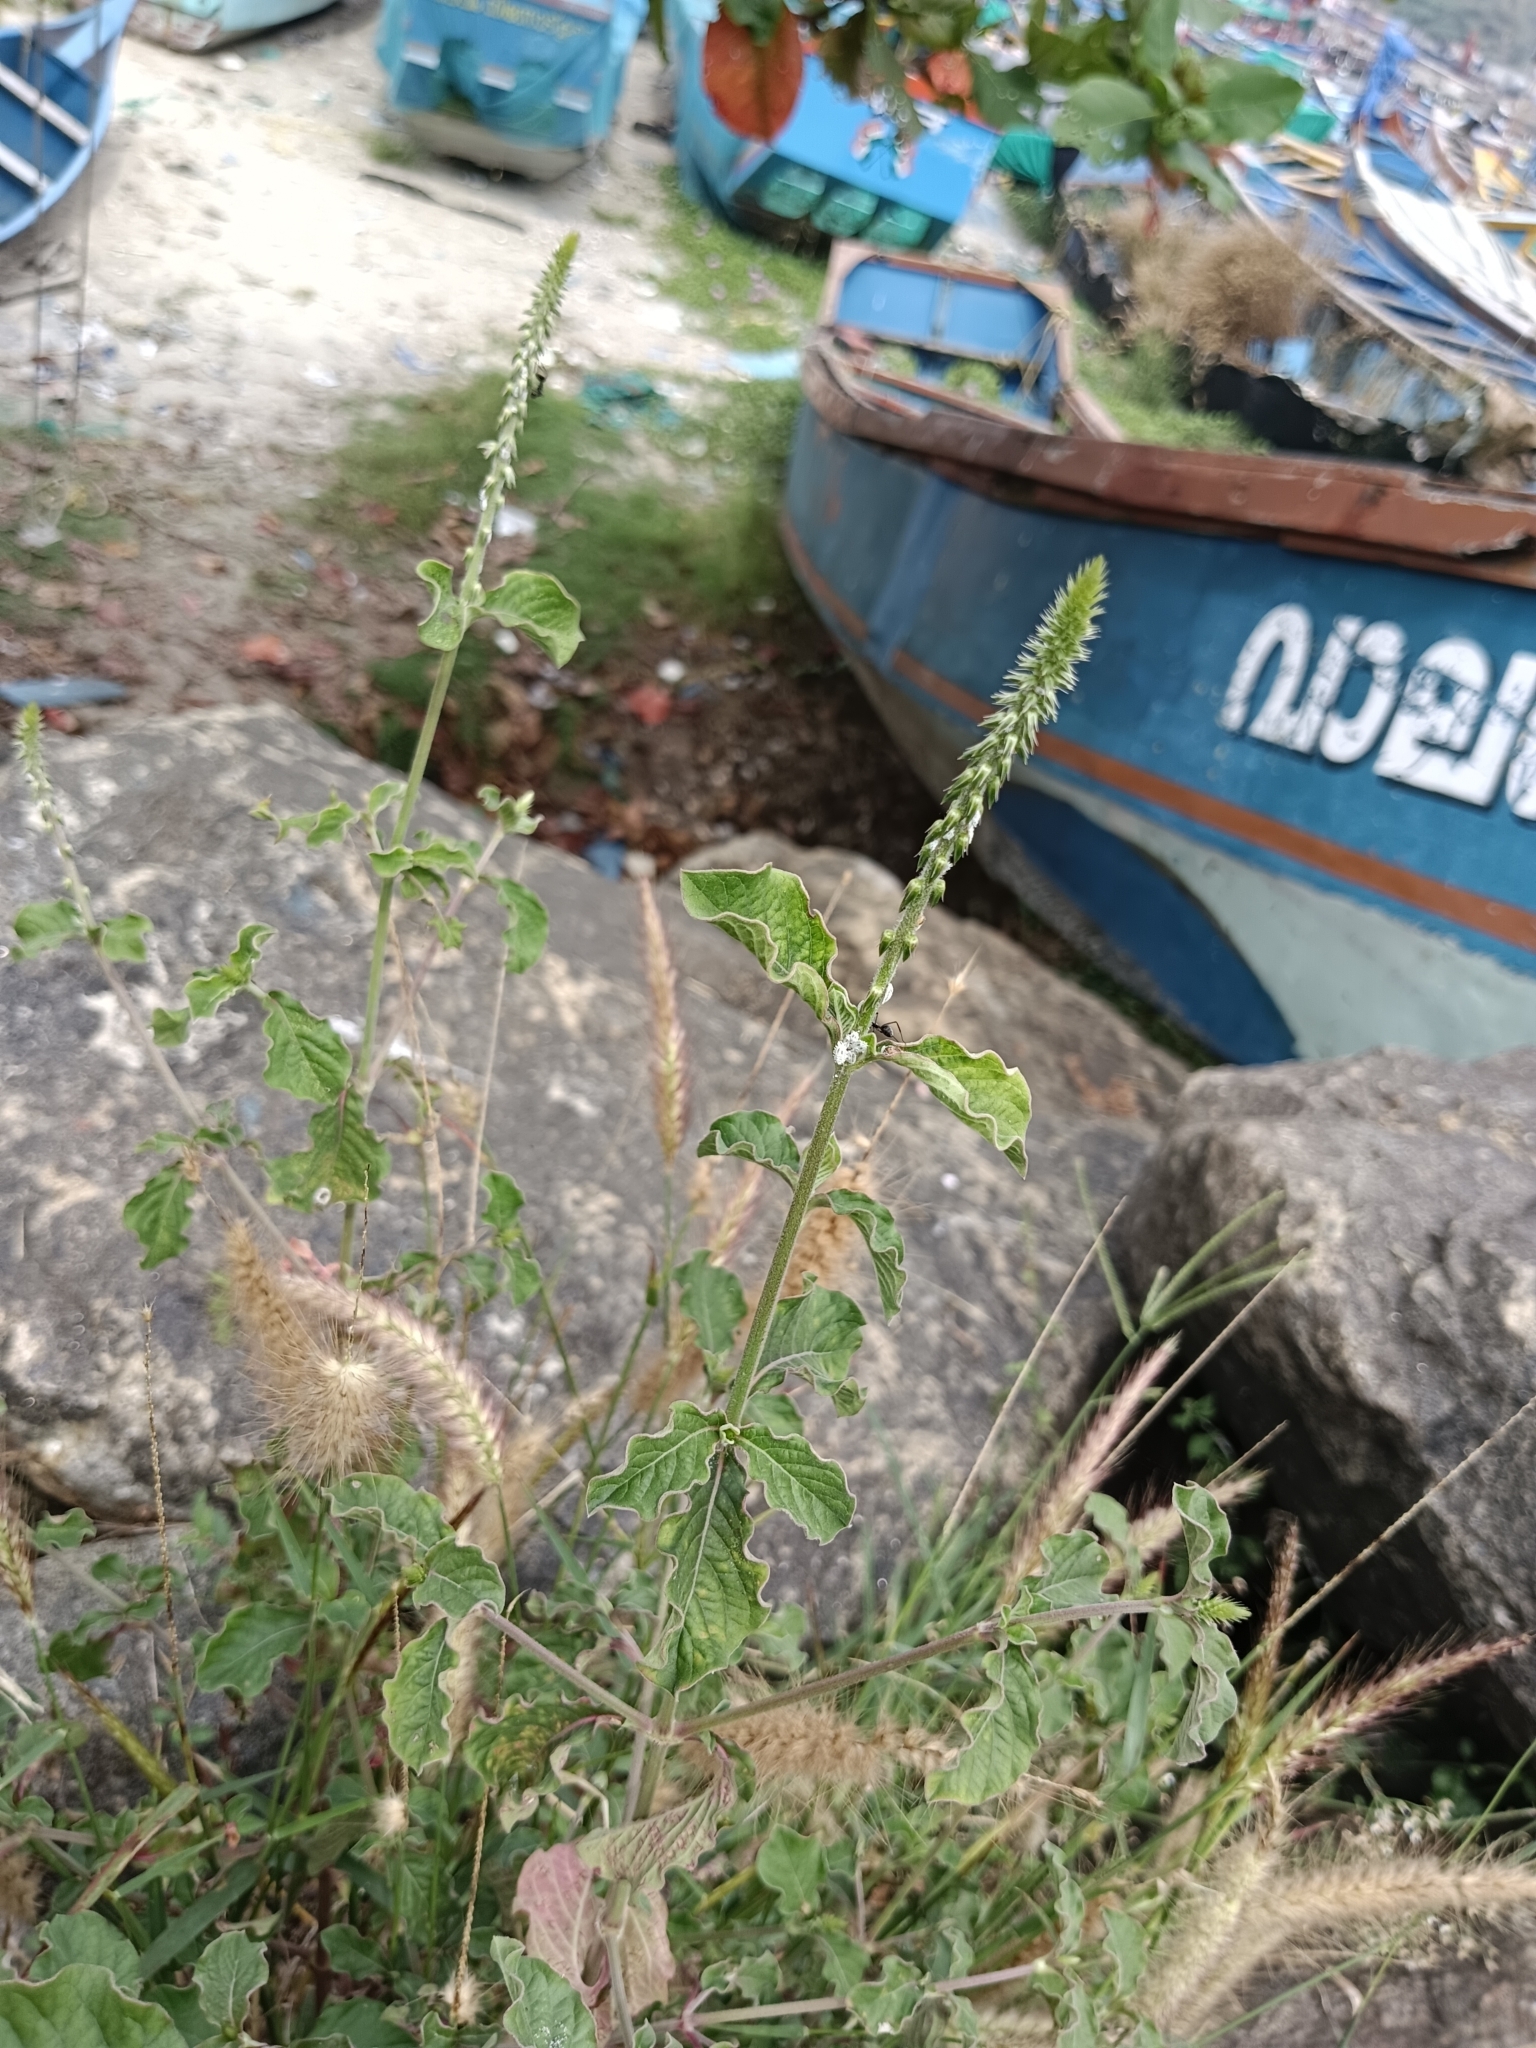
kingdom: Plantae
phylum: Tracheophyta
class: Magnoliopsida
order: Caryophyllales
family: Amaranthaceae
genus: Achyranthes
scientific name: Achyranthes aspera
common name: Devil's horsewhip
